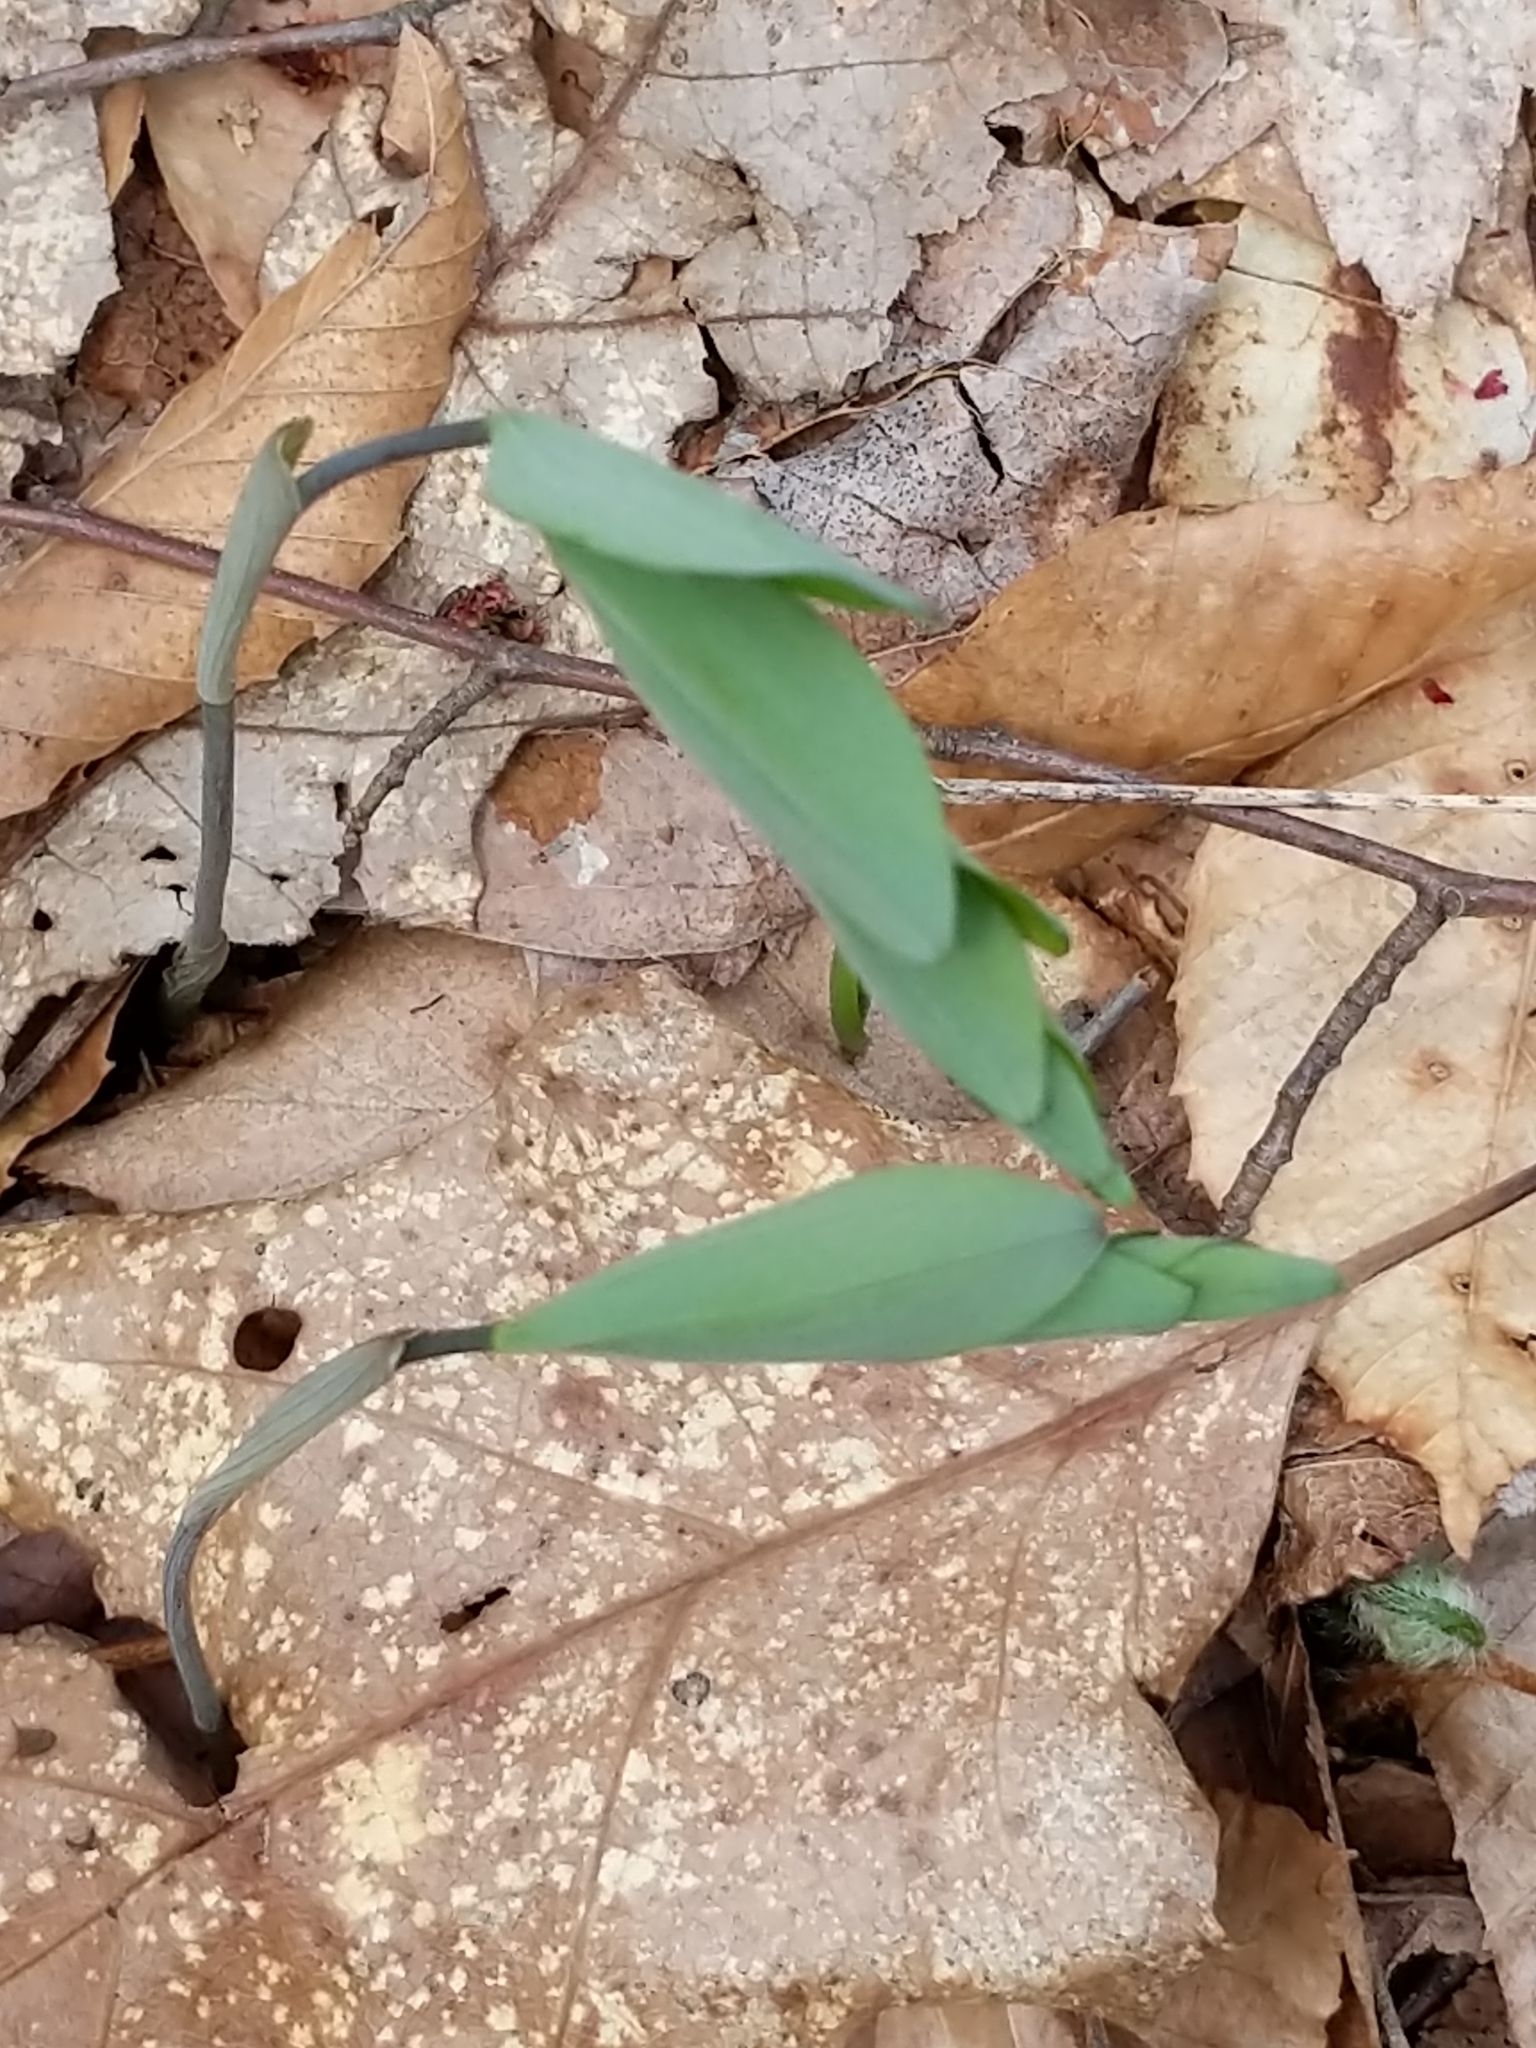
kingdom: Plantae
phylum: Tracheophyta
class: Liliopsida
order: Asparagales
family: Asparagaceae
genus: Polygonatum
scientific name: Polygonatum pubescens
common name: Downy solomon's seal
